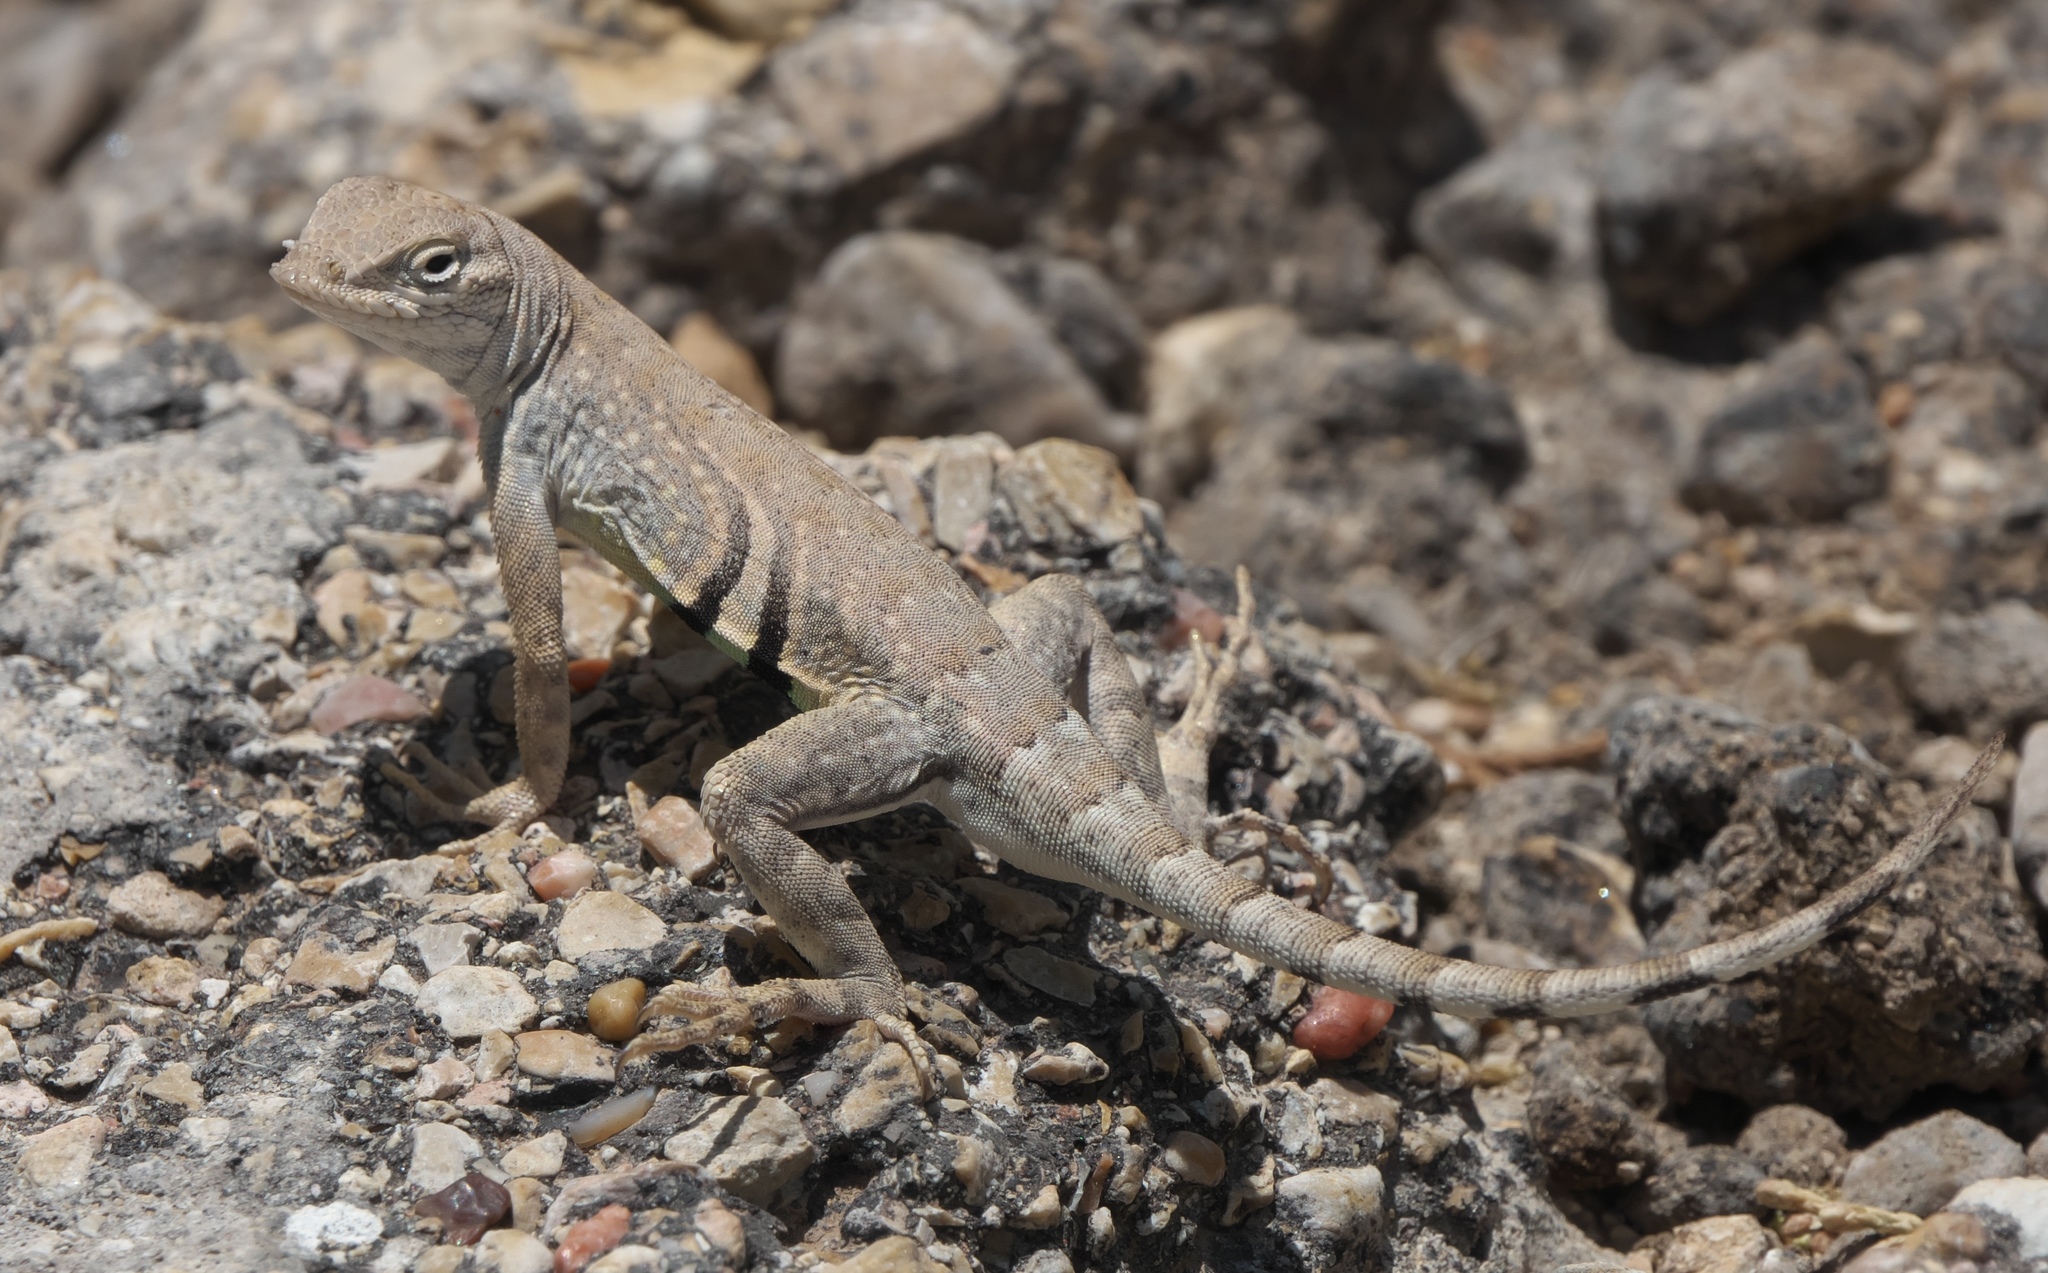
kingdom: Animalia
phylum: Chordata
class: Squamata
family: Phrynosomatidae
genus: Cophosaurus
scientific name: Cophosaurus texanus
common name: Greater earless lizard
